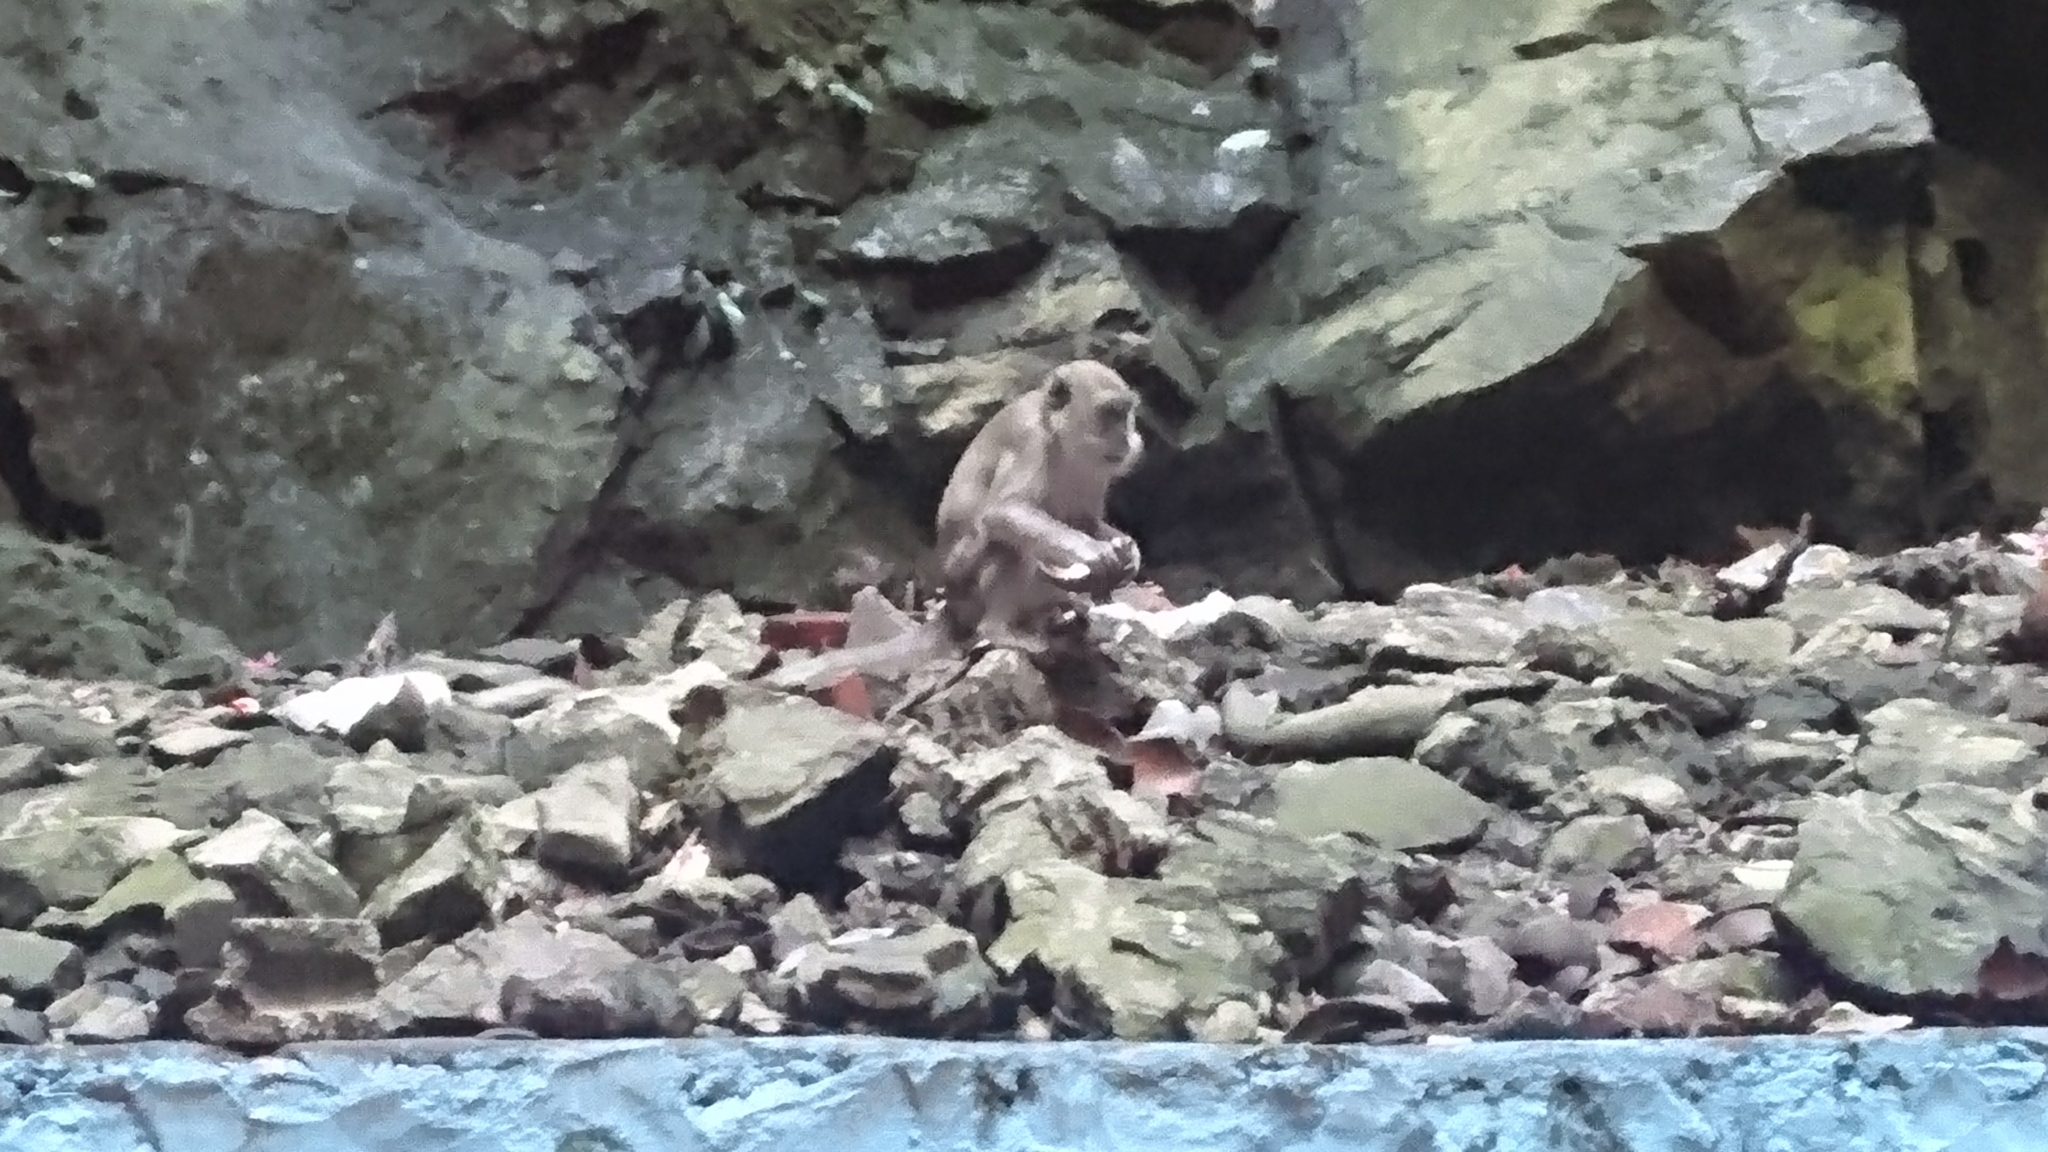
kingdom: Animalia
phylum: Chordata
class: Mammalia
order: Primates
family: Cercopithecidae
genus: Macaca
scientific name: Macaca fascicularis
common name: Crab-eating macaque
